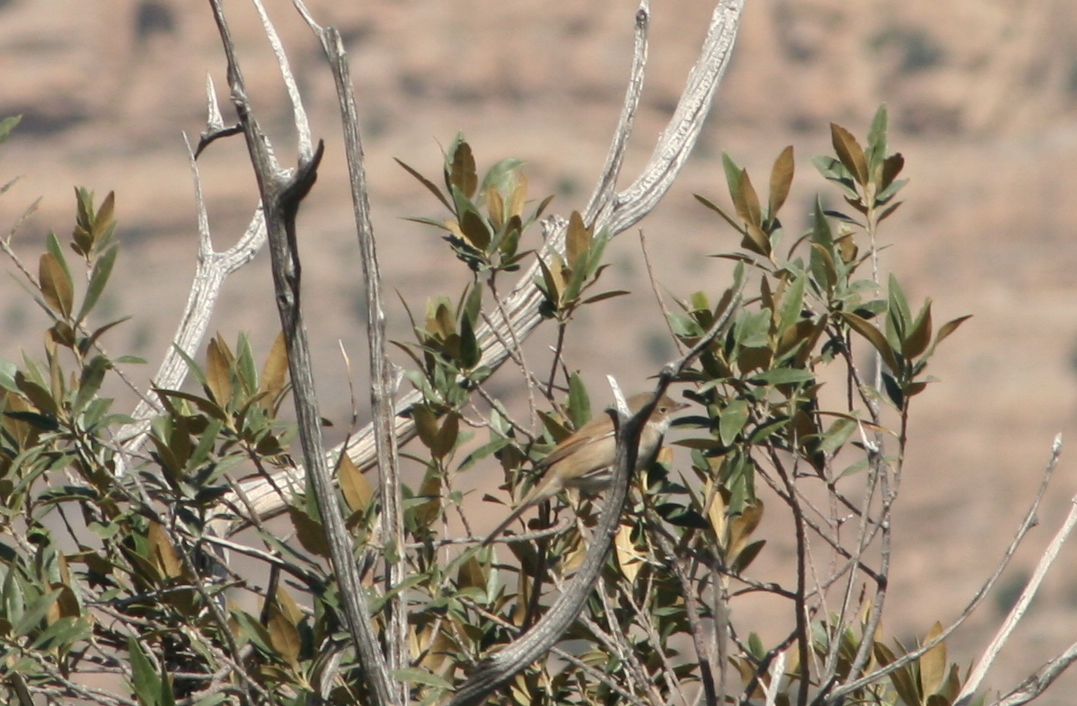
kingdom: Animalia
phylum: Chordata
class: Aves
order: Passeriformes
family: Sylviidae
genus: Sylvia
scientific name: Sylvia communis
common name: Common whitethroat
